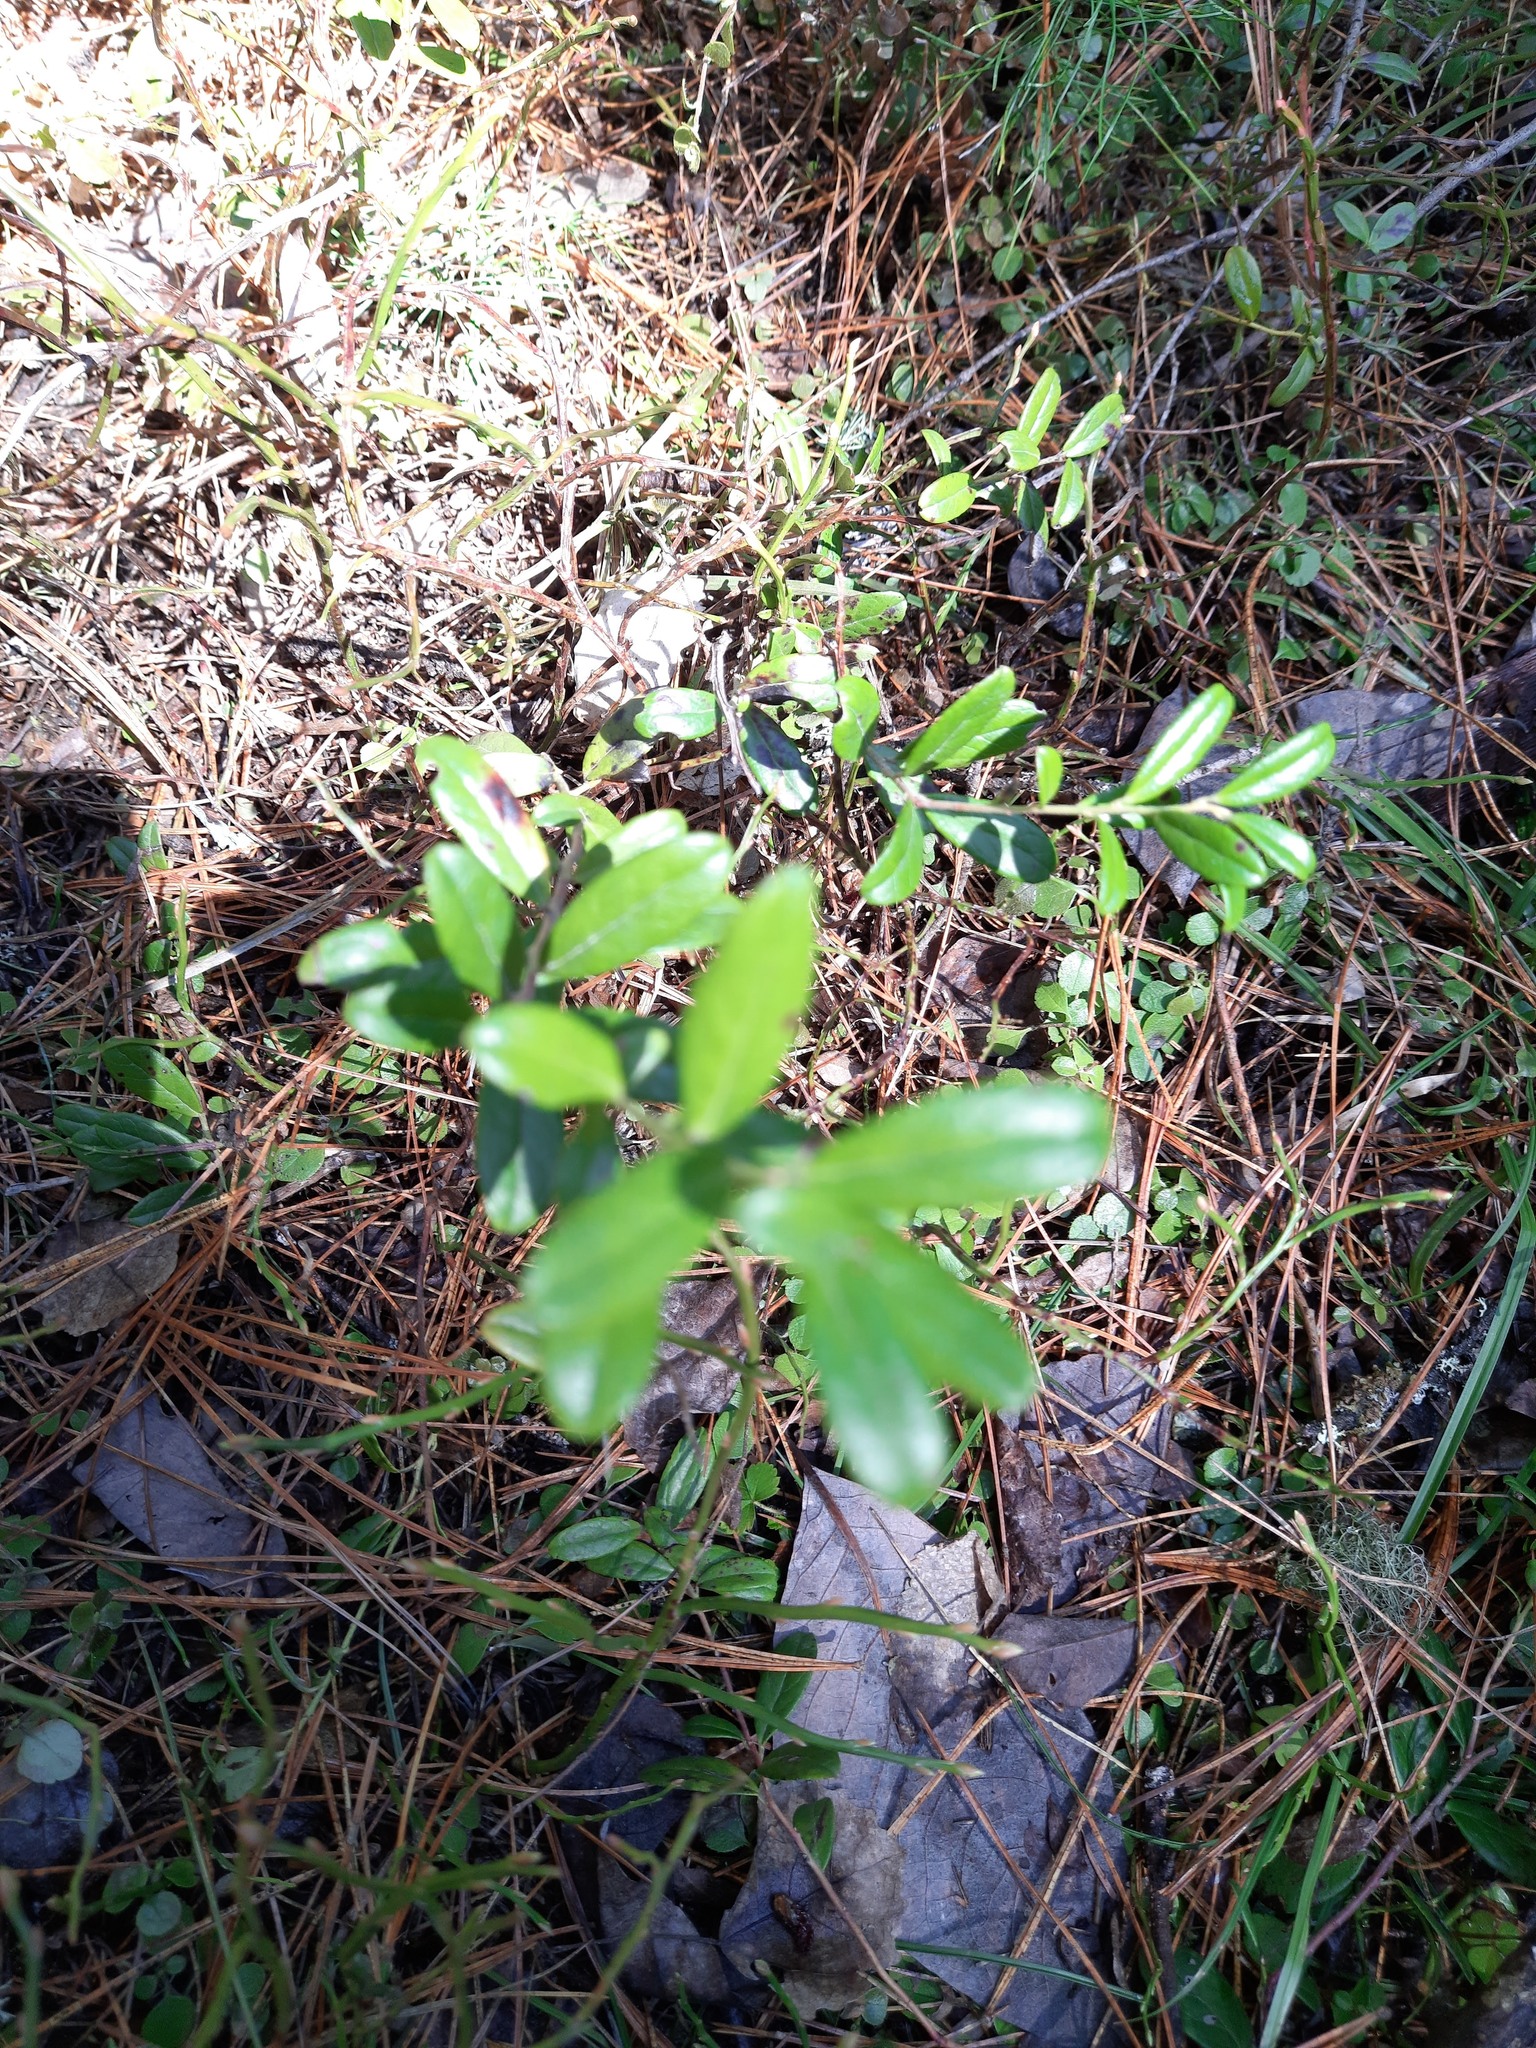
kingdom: Plantae
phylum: Tracheophyta
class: Magnoliopsida
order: Ericales
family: Ericaceae
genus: Vaccinium
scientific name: Vaccinium vitis-idaea
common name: Cowberry
